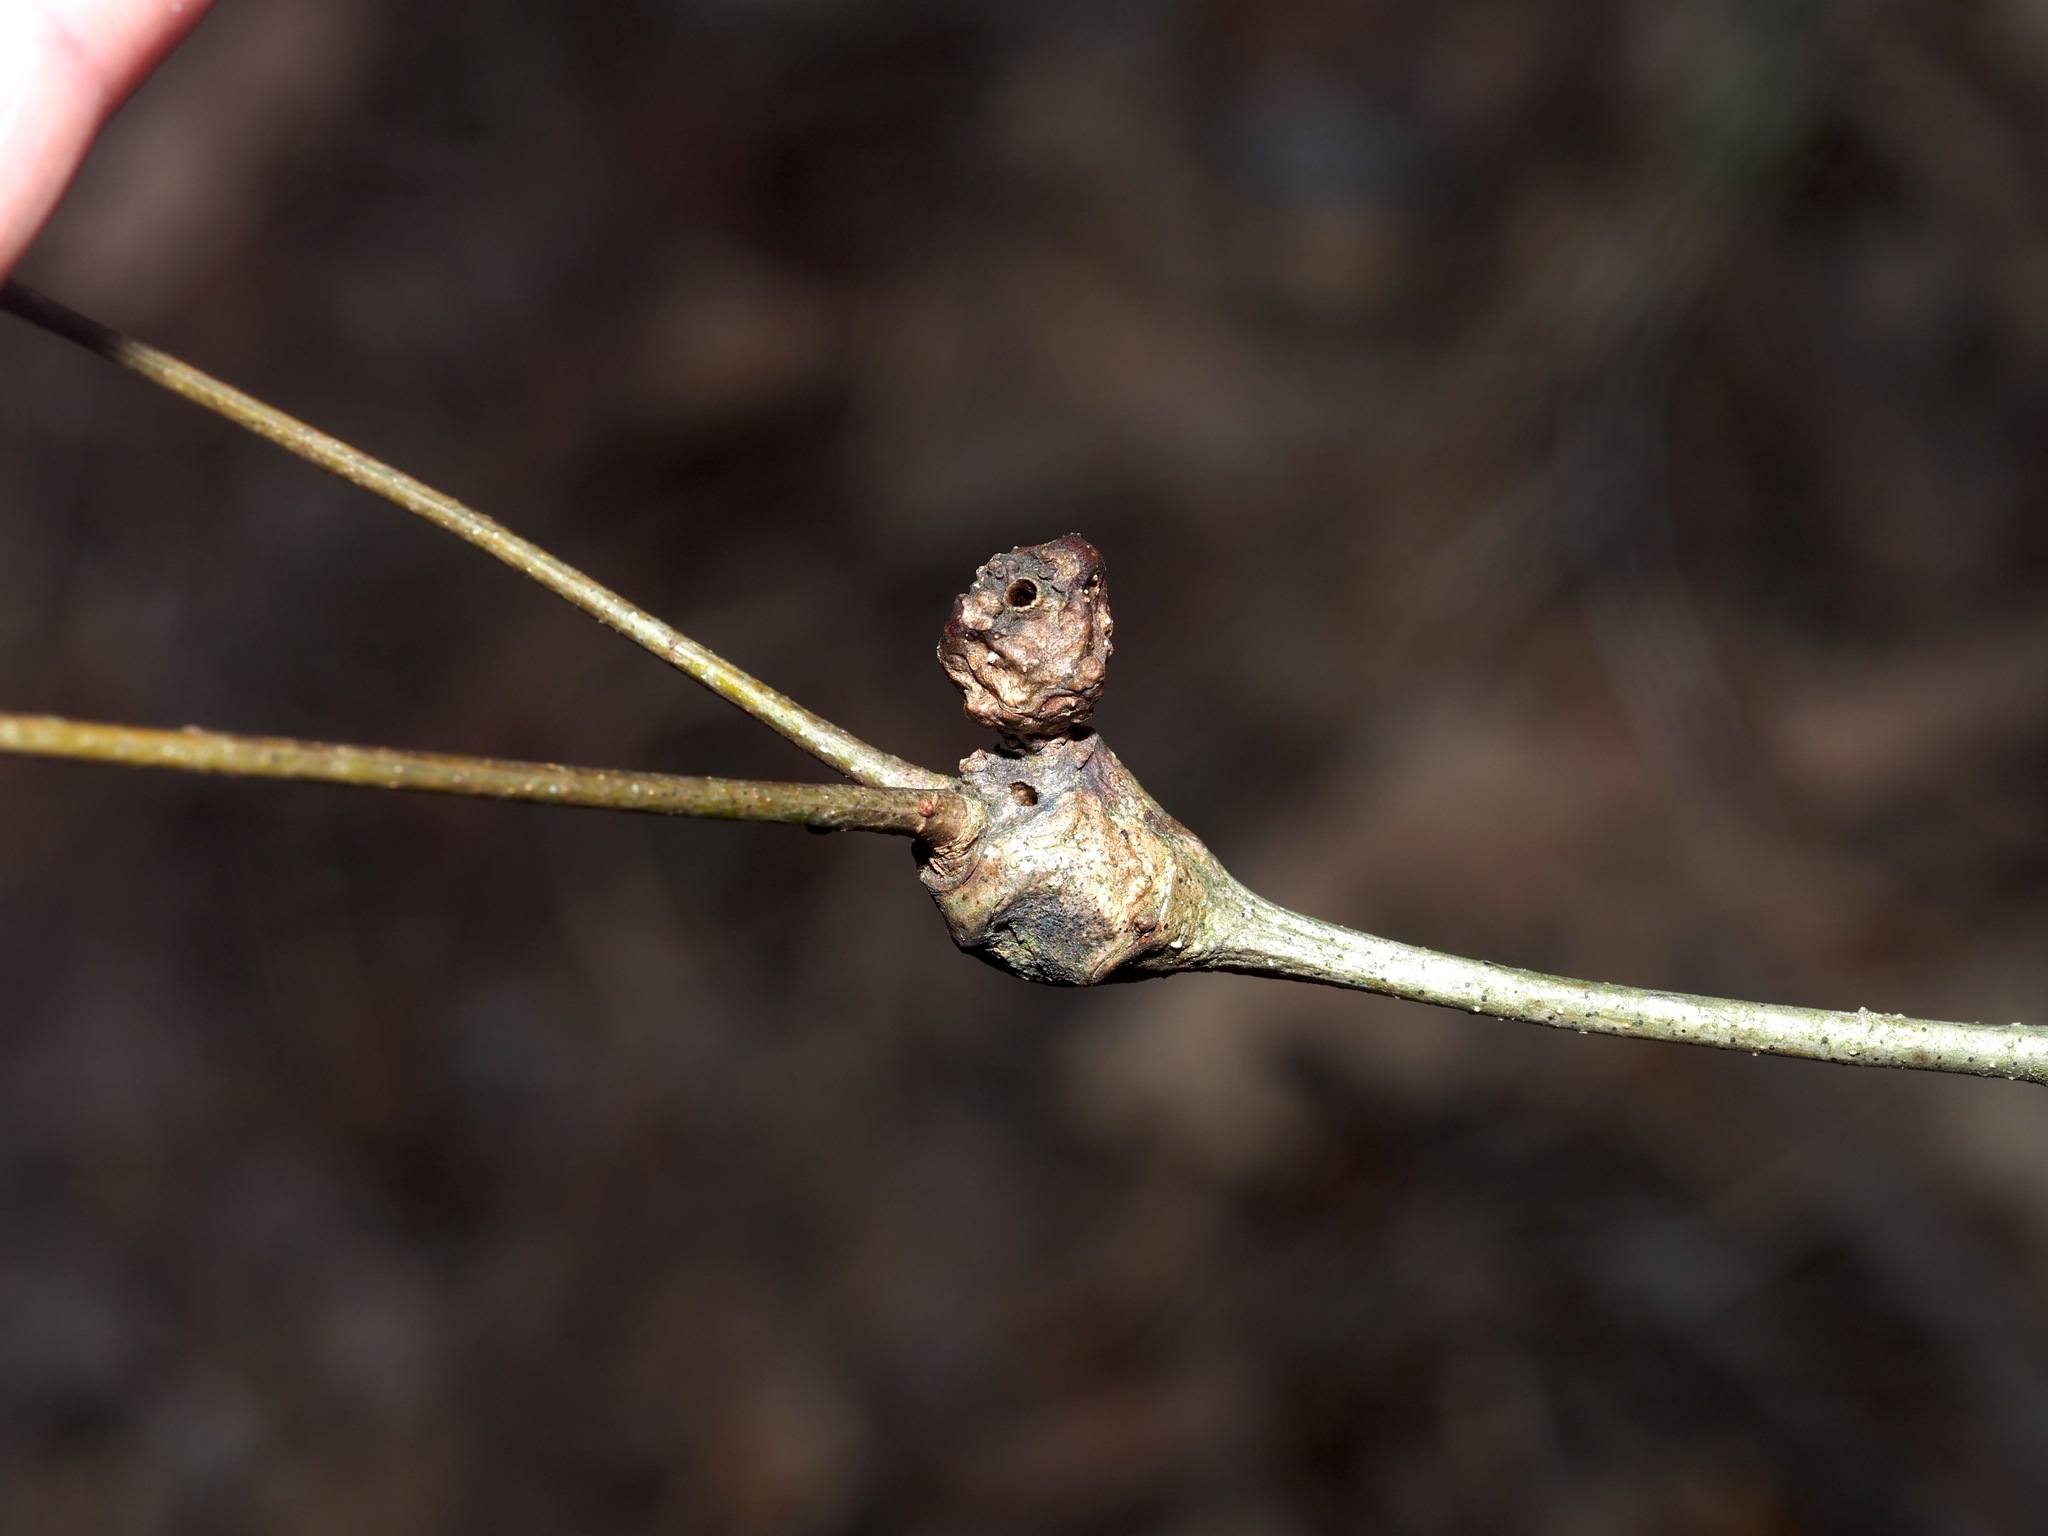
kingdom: Animalia
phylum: Arthropoda
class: Insecta
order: Hymenoptera
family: Cynipidae
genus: Callirhytis
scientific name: Callirhytis clavula
